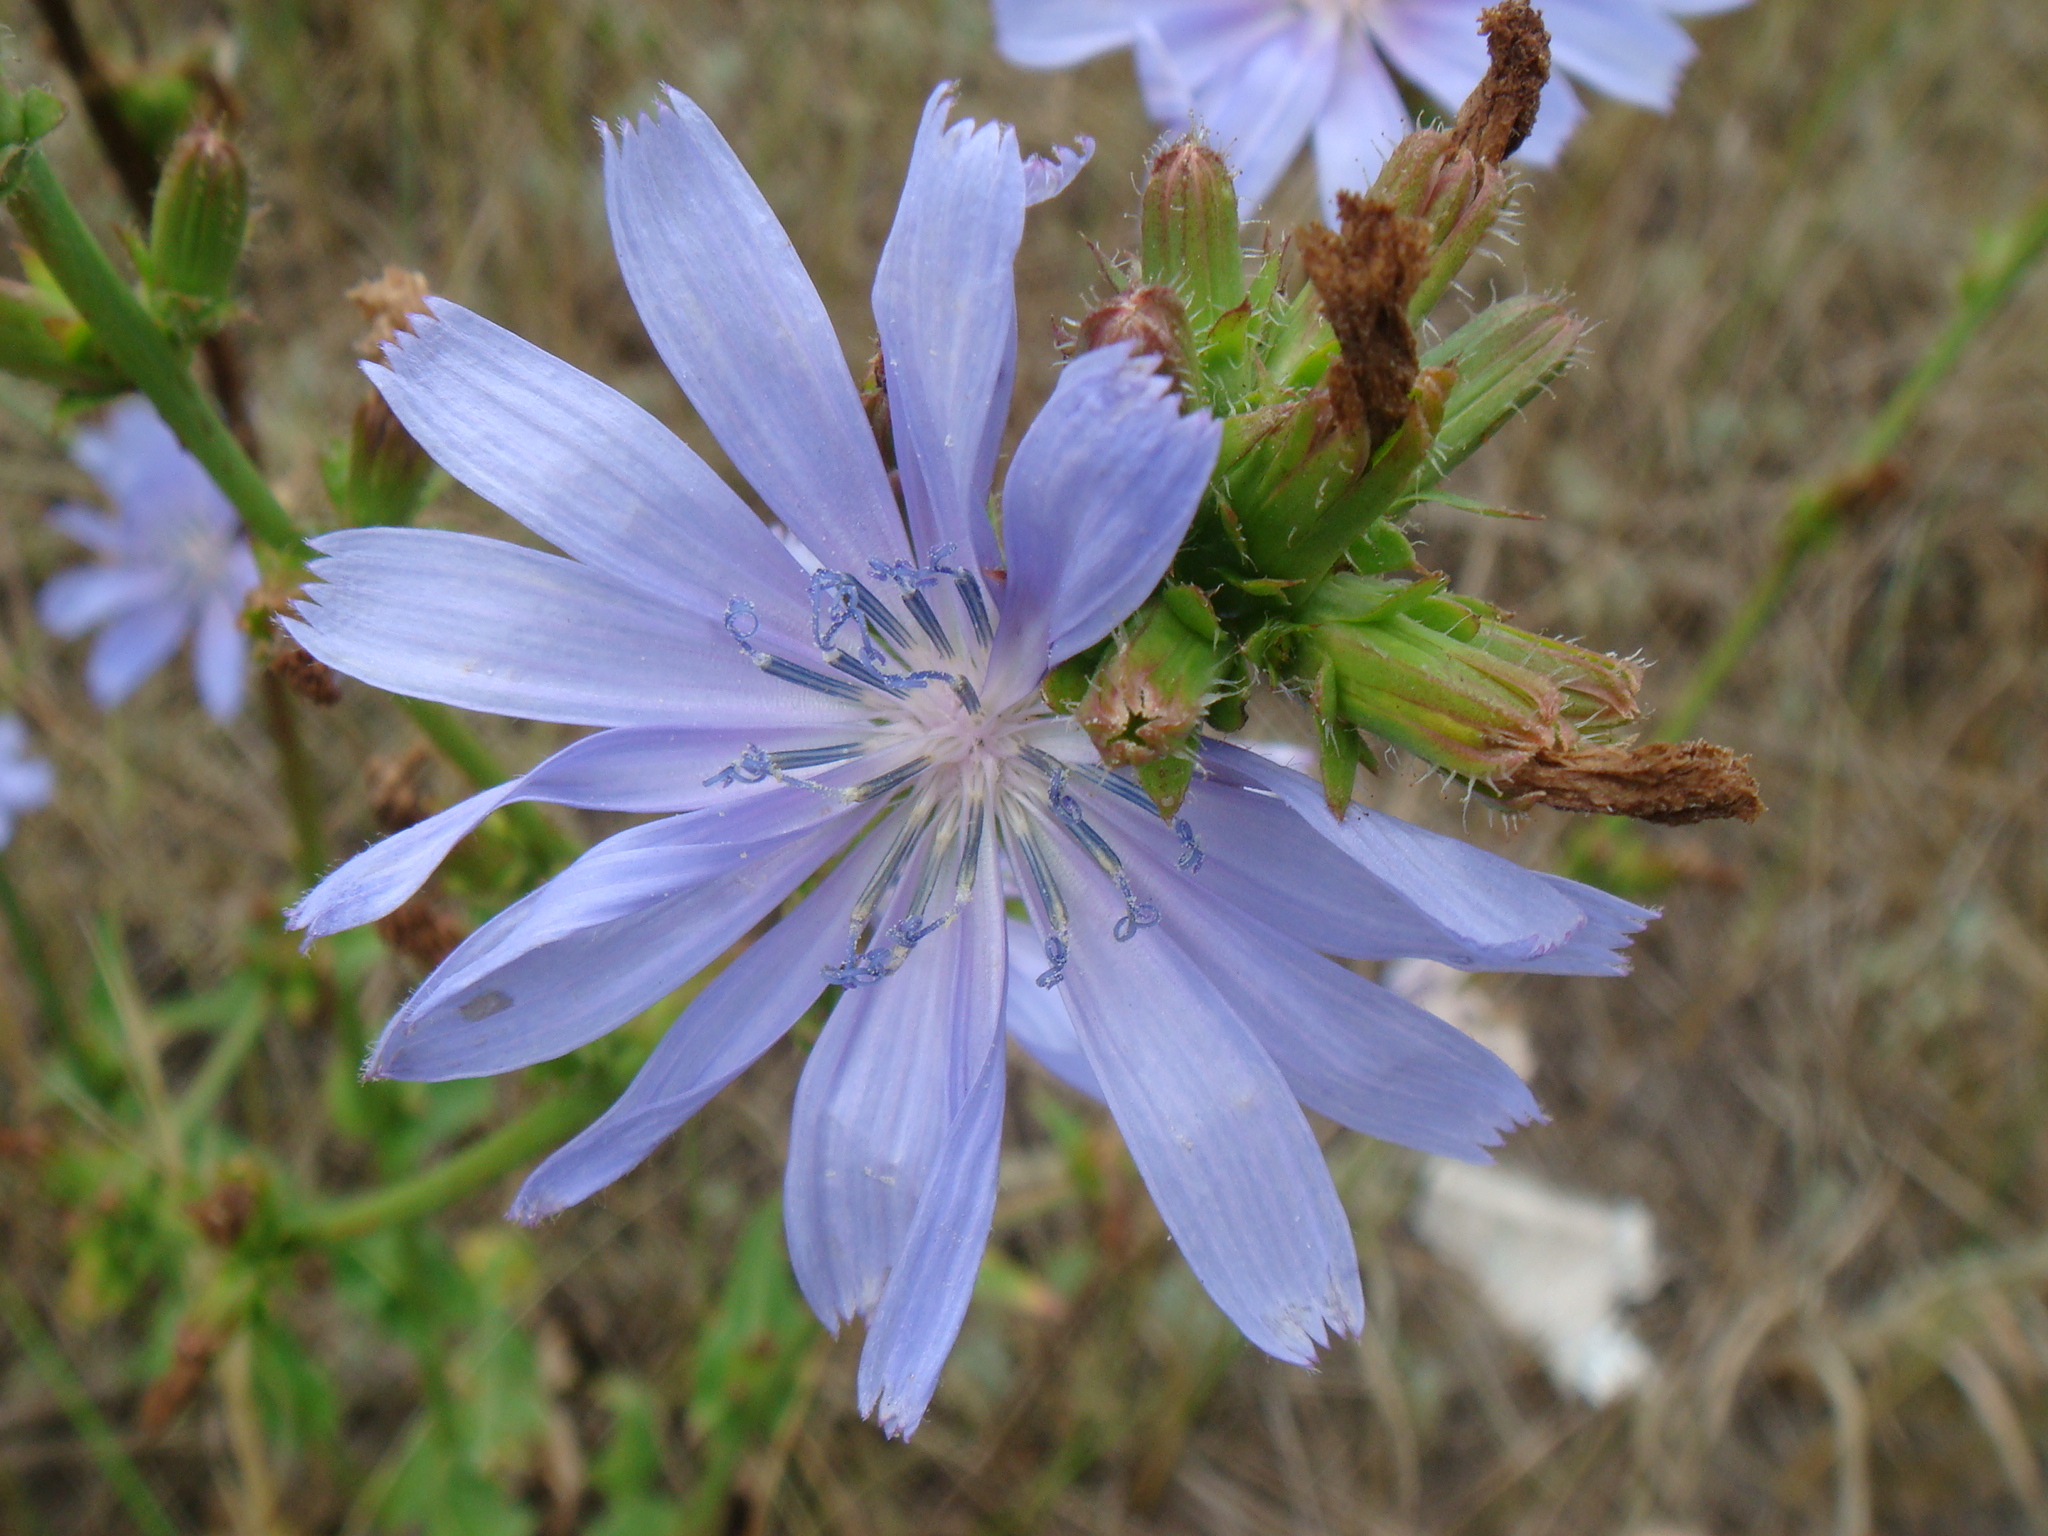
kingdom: Plantae
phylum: Tracheophyta
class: Magnoliopsida
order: Asterales
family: Asteraceae
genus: Cichorium
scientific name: Cichorium intybus
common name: Chicory
